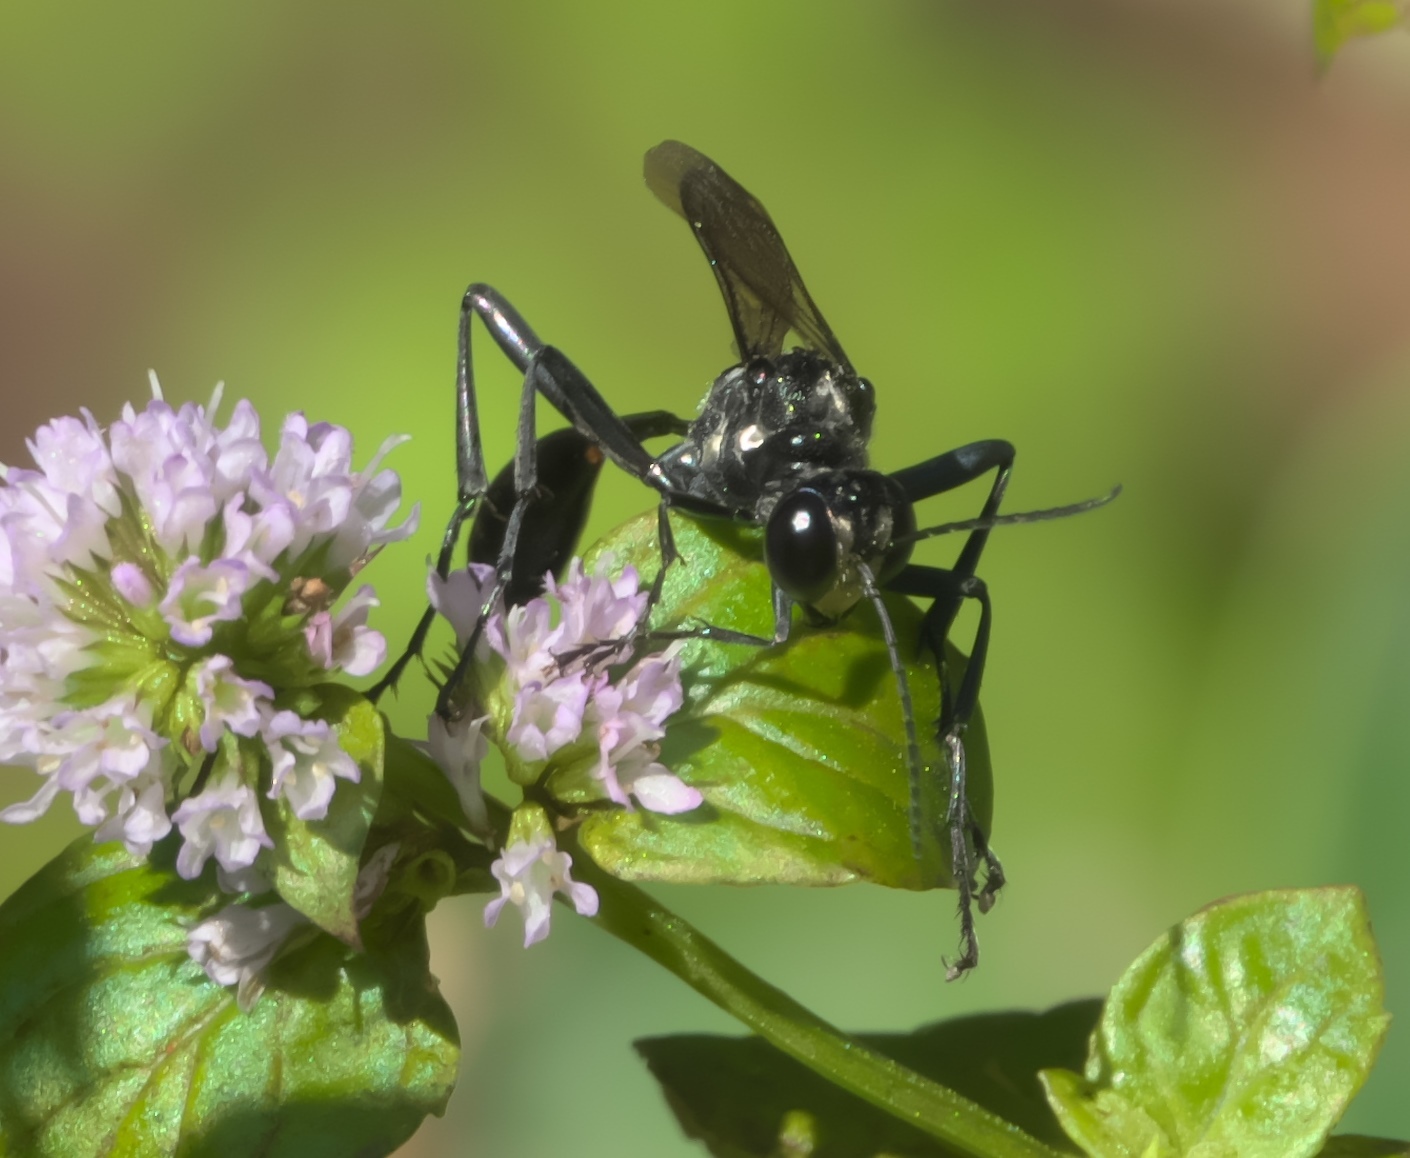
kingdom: Animalia
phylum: Arthropoda
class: Insecta
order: Hymenoptera
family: Sphecidae
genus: Eremnophila
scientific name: Eremnophila aureonotata
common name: Gold-marked thread-waisted wasp
